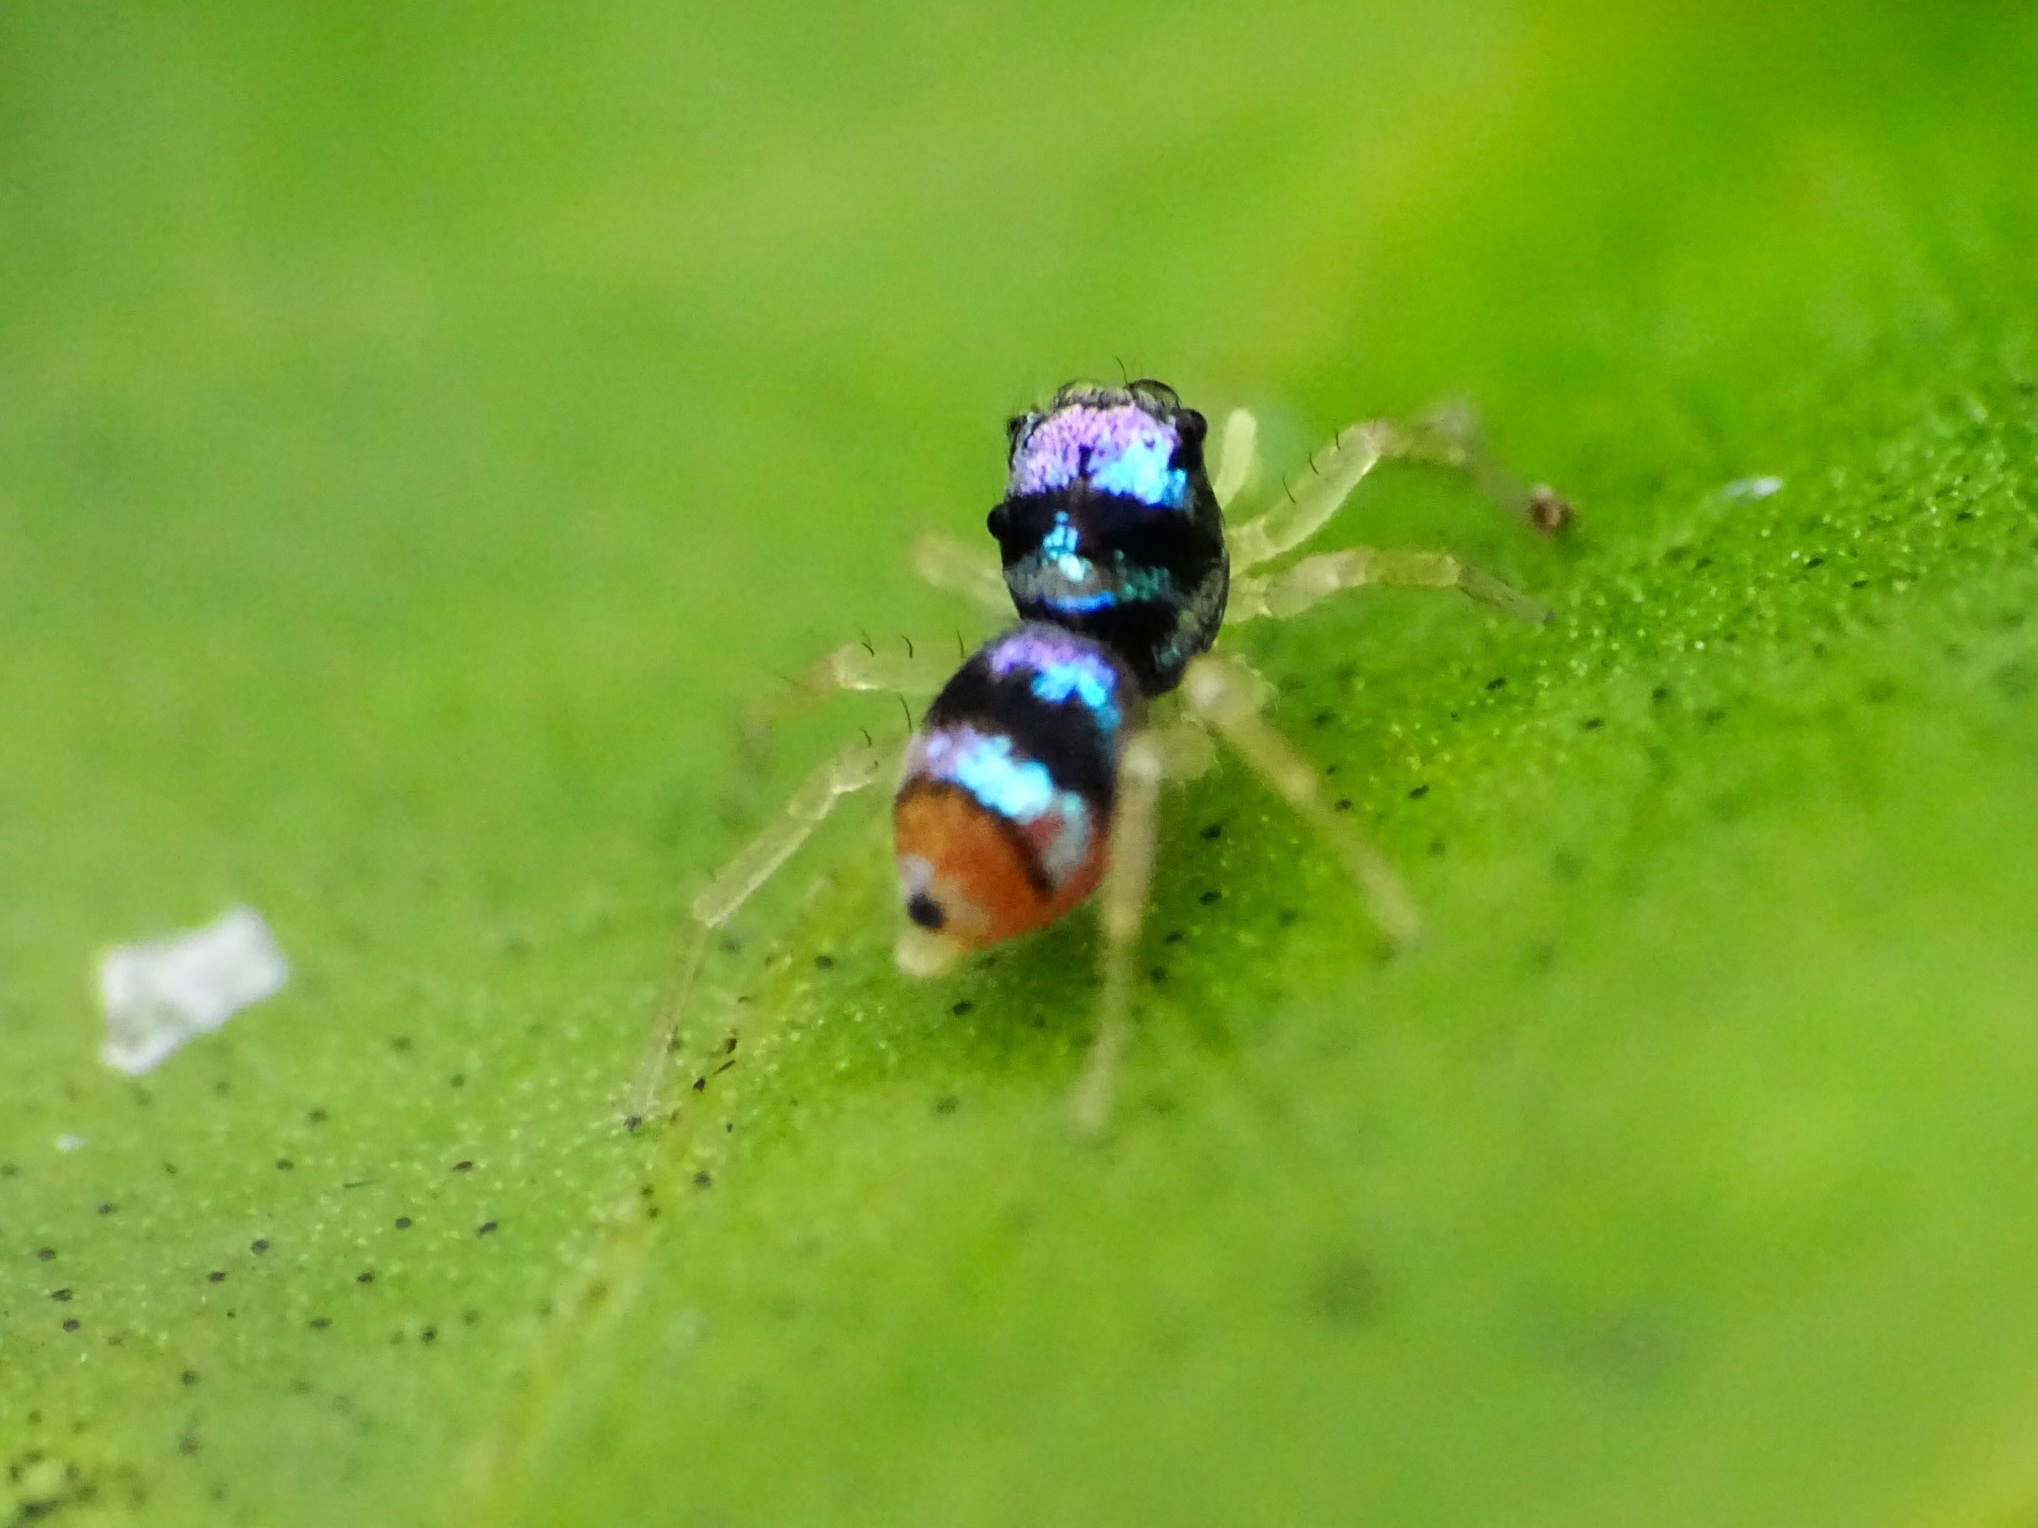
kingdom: Animalia
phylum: Arthropoda
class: Arachnida
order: Araneae
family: Salticidae
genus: Phintella
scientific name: Phintella vittata
